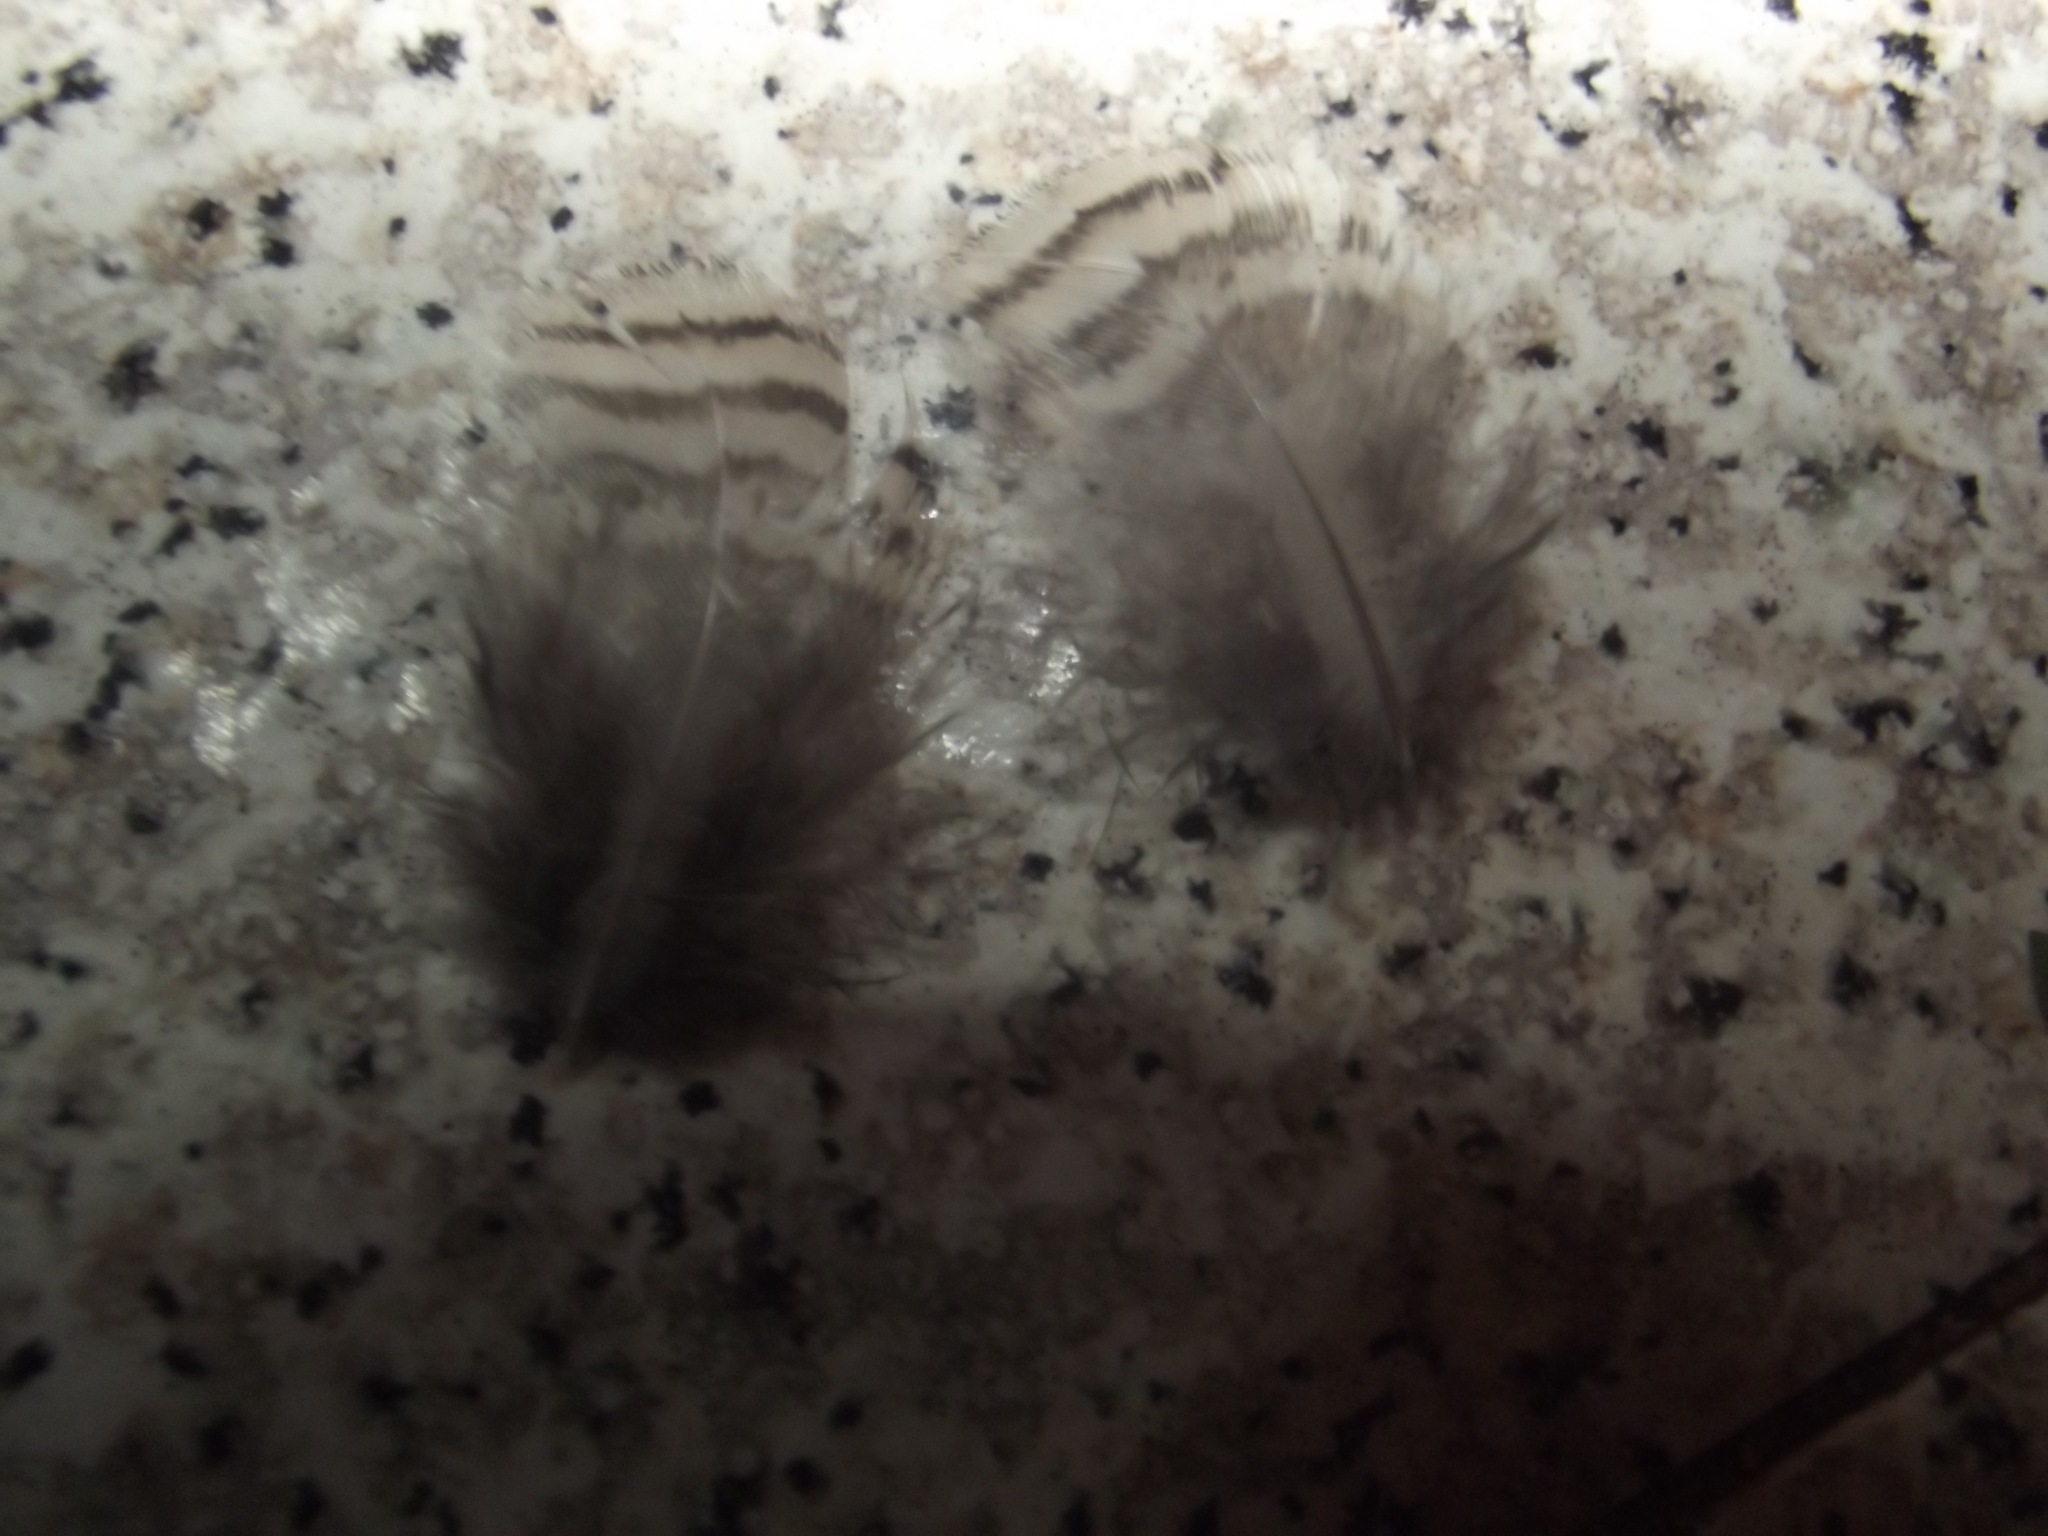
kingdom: Animalia
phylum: Chordata
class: Aves
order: Charadriiformes
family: Scolopacidae
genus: Scolopax
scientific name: Scolopax rusticola
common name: Eurasian woodcock
